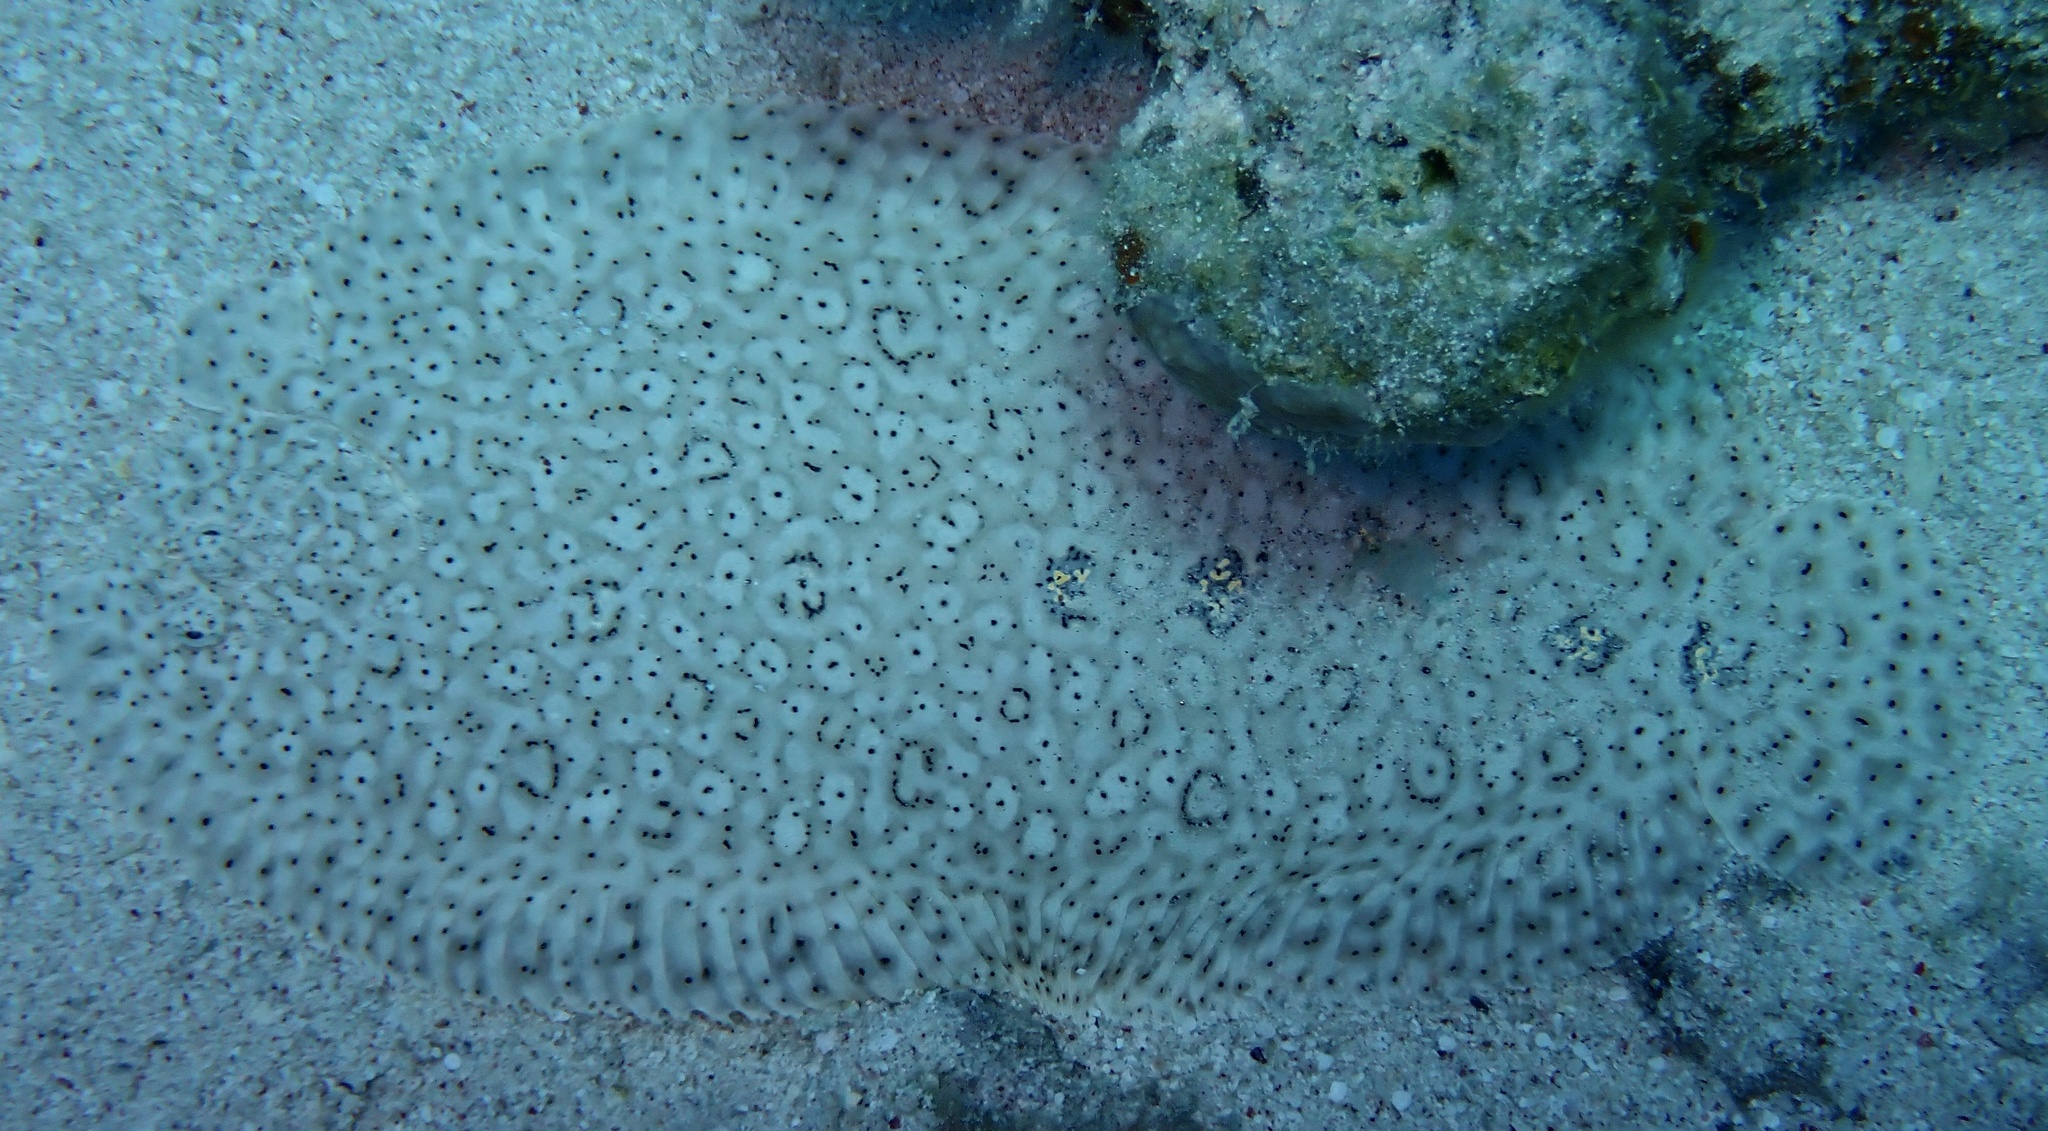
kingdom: Animalia
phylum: Chordata
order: Pleuronectiformes
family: Soleidae
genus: Pardachirus
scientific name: Pardachirus marmoratus
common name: Finless sole
